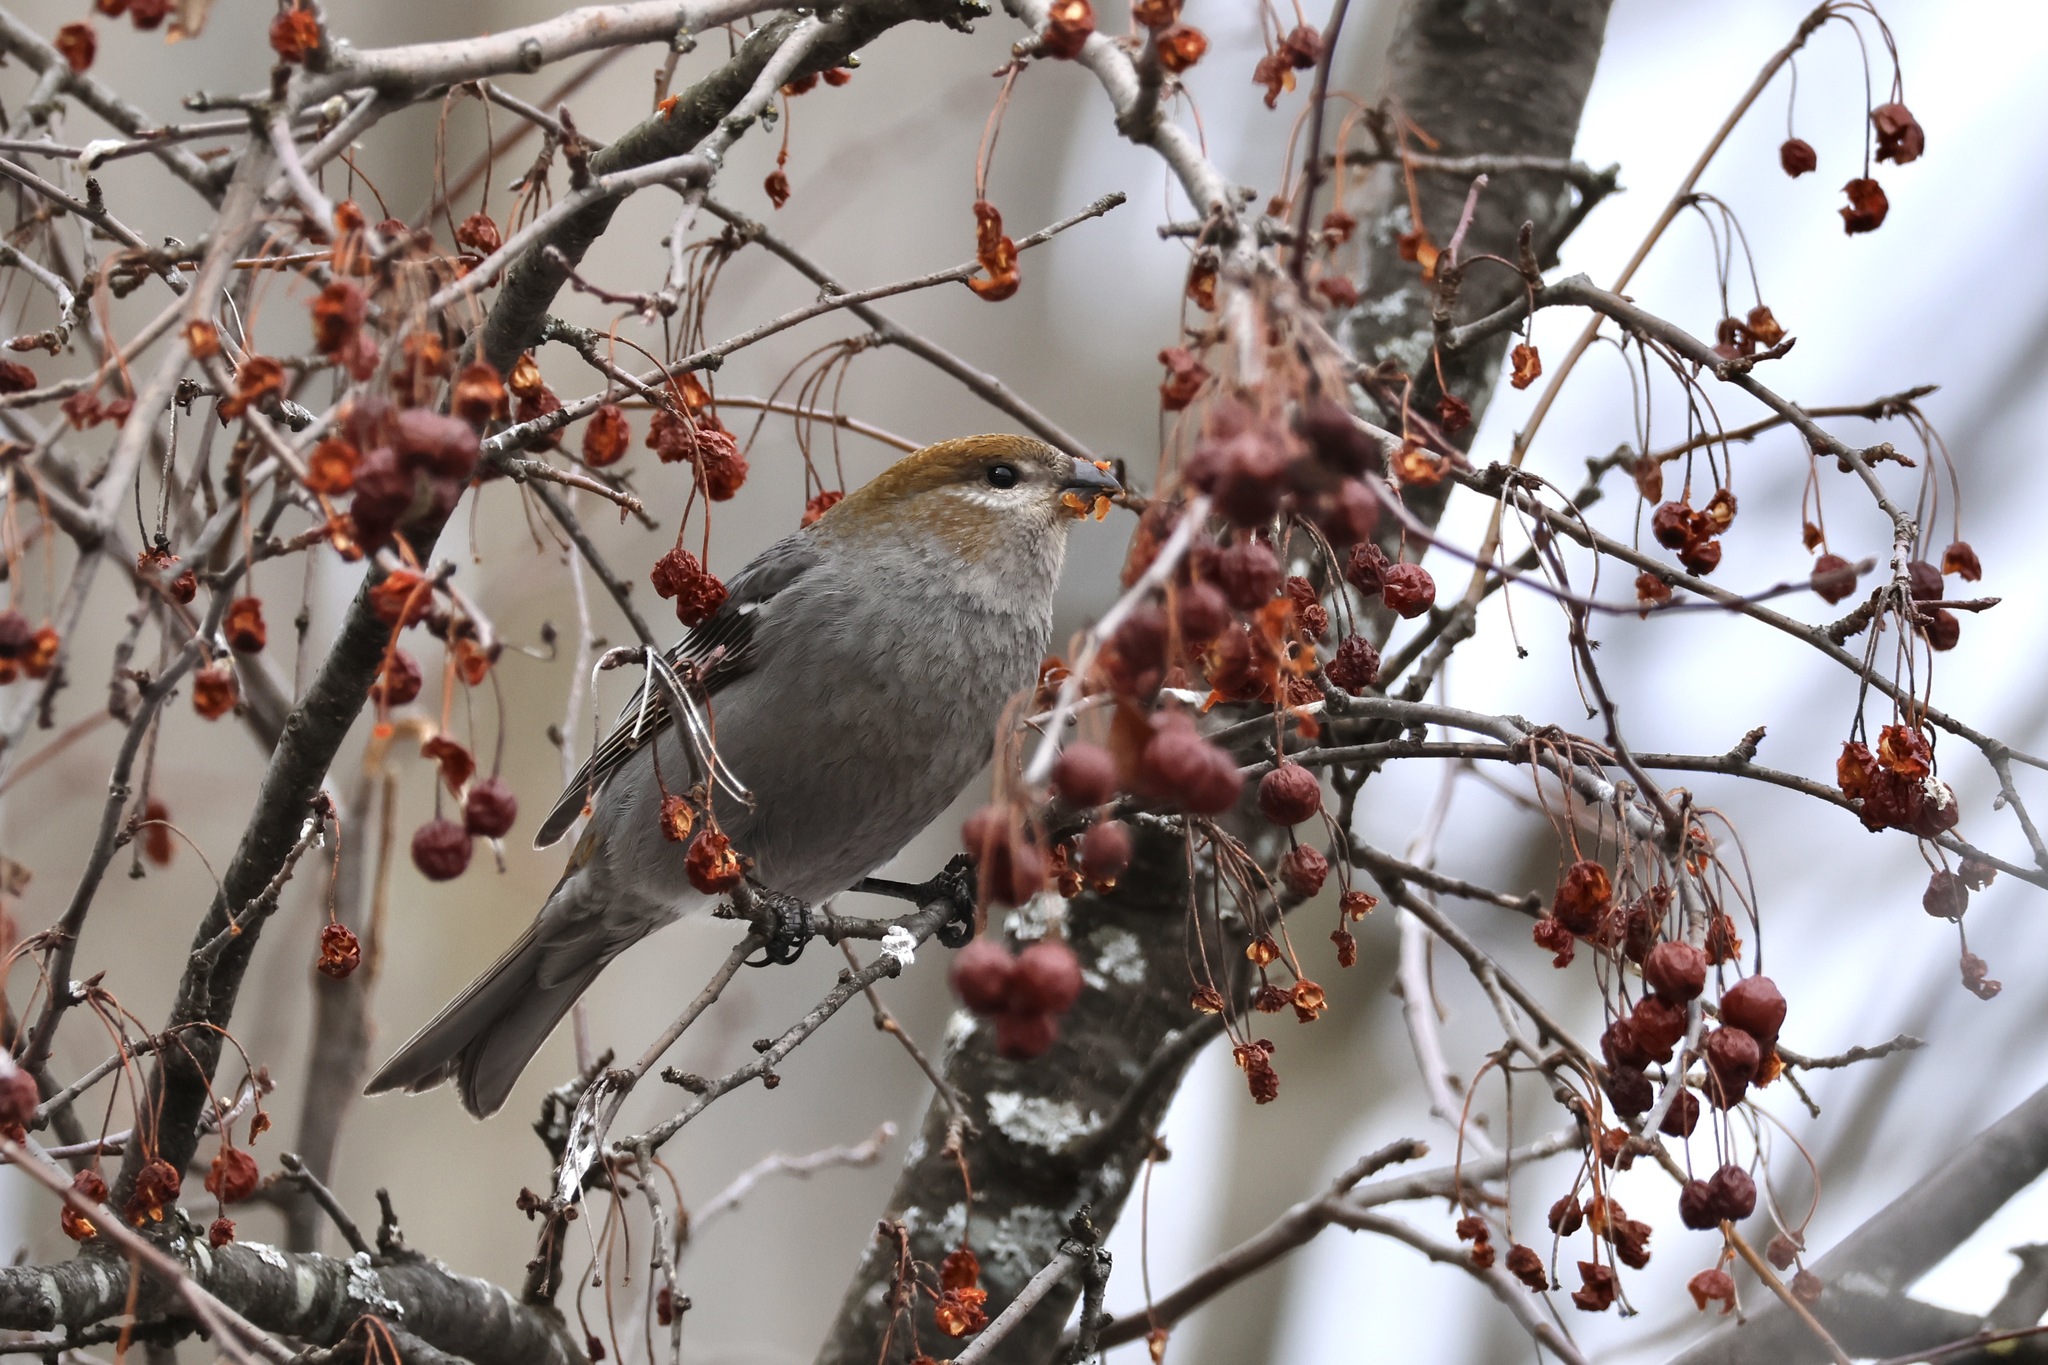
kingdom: Animalia
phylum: Chordata
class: Aves
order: Passeriformes
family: Fringillidae
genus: Pinicola
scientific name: Pinicola enucleator
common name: Pine grosbeak
